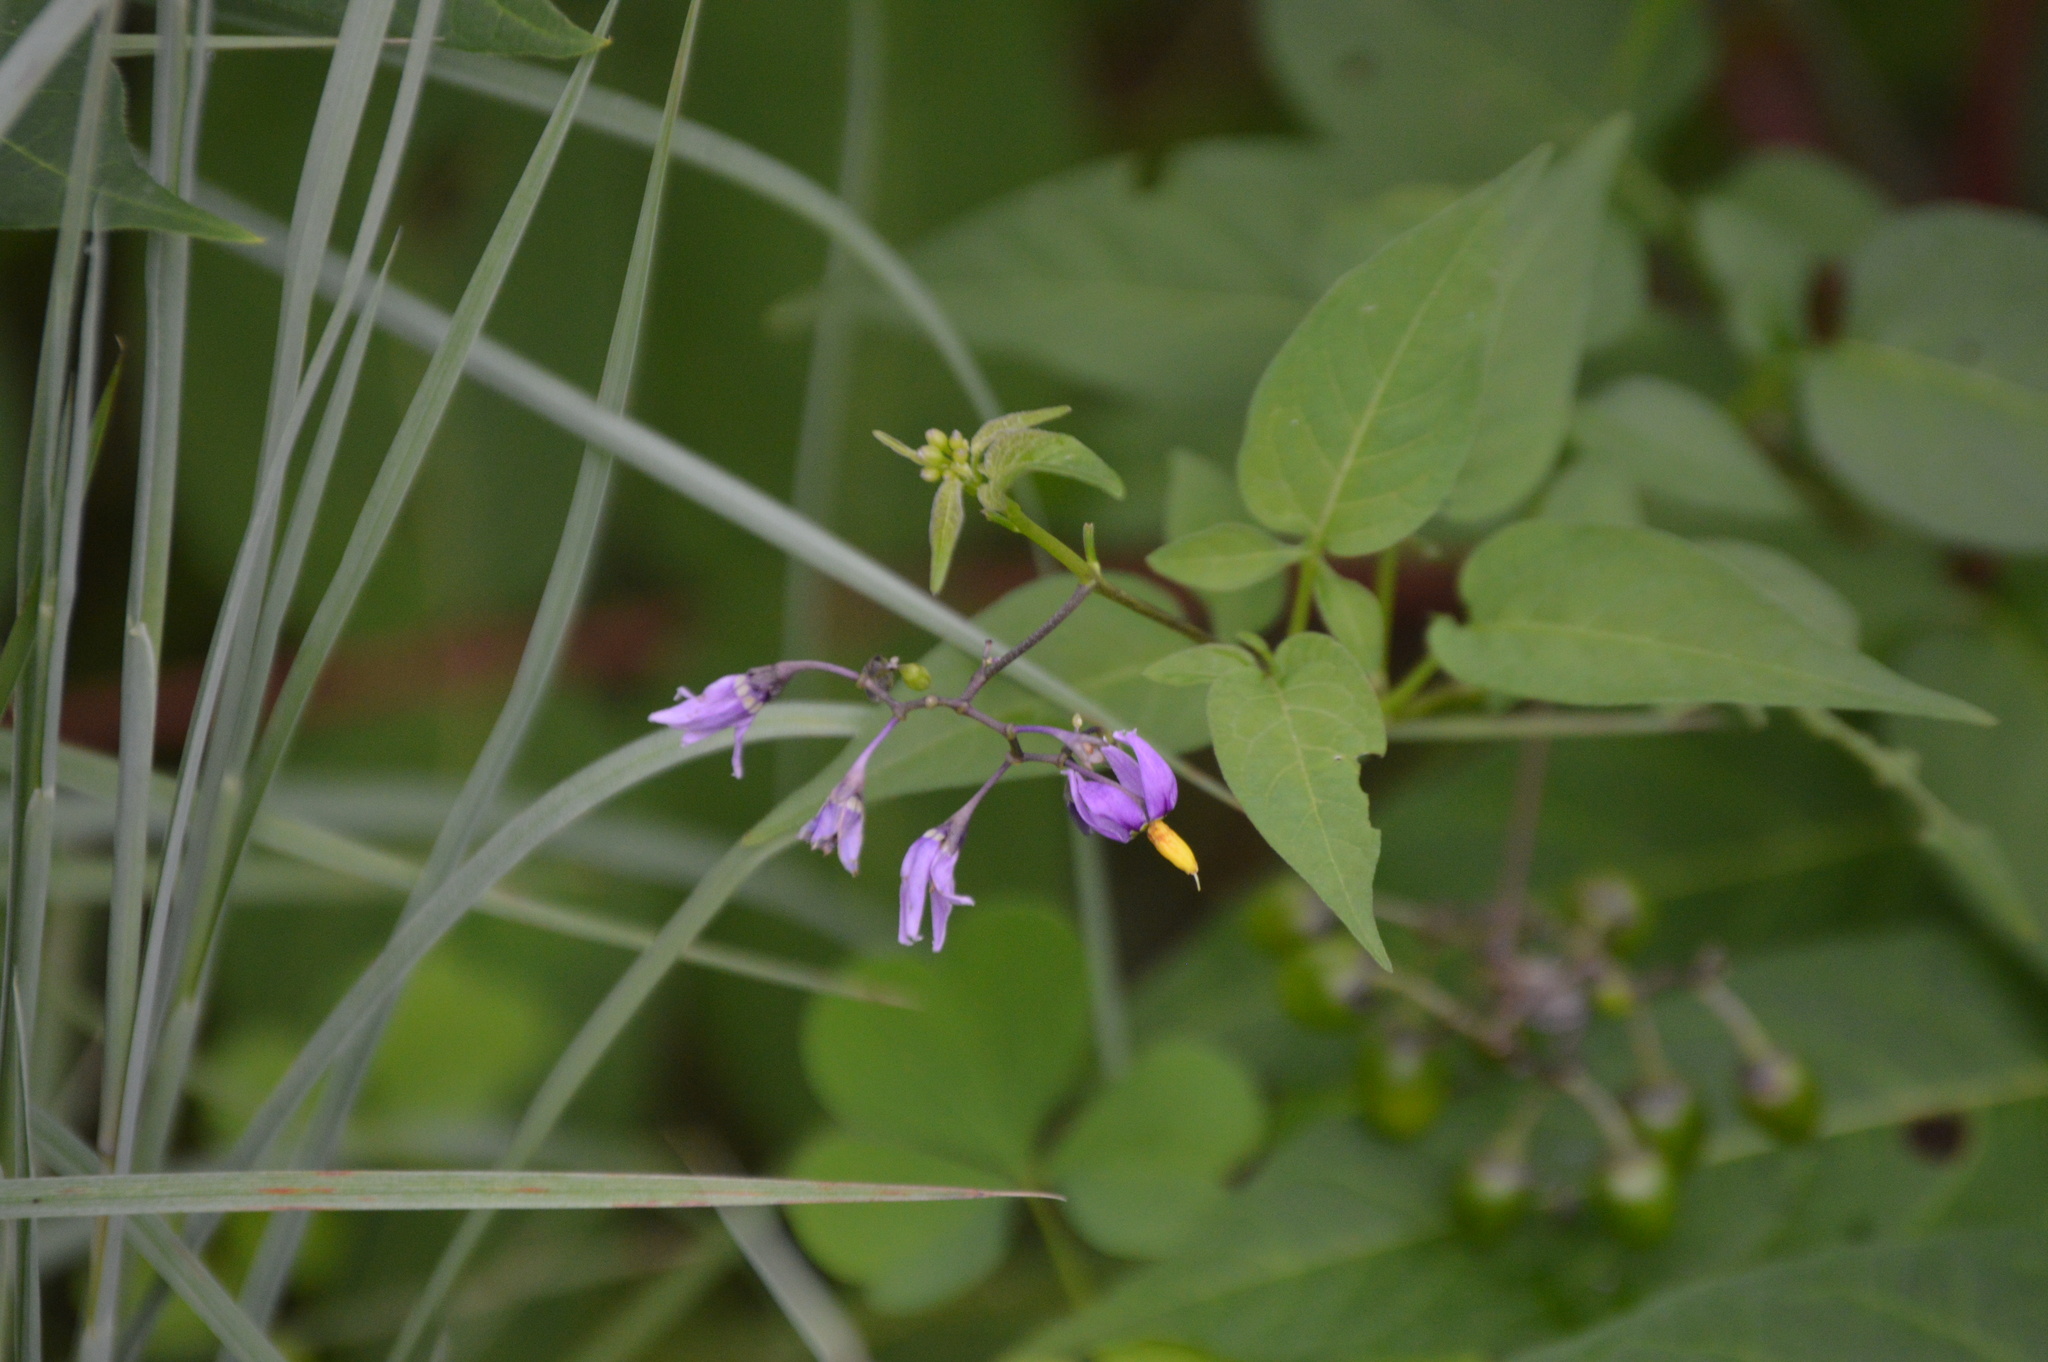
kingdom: Plantae
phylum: Tracheophyta
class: Magnoliopsida
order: Solanales
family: Solanaceae
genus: Solanum
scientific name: Solanum dulcamara
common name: Climbing nightshade
